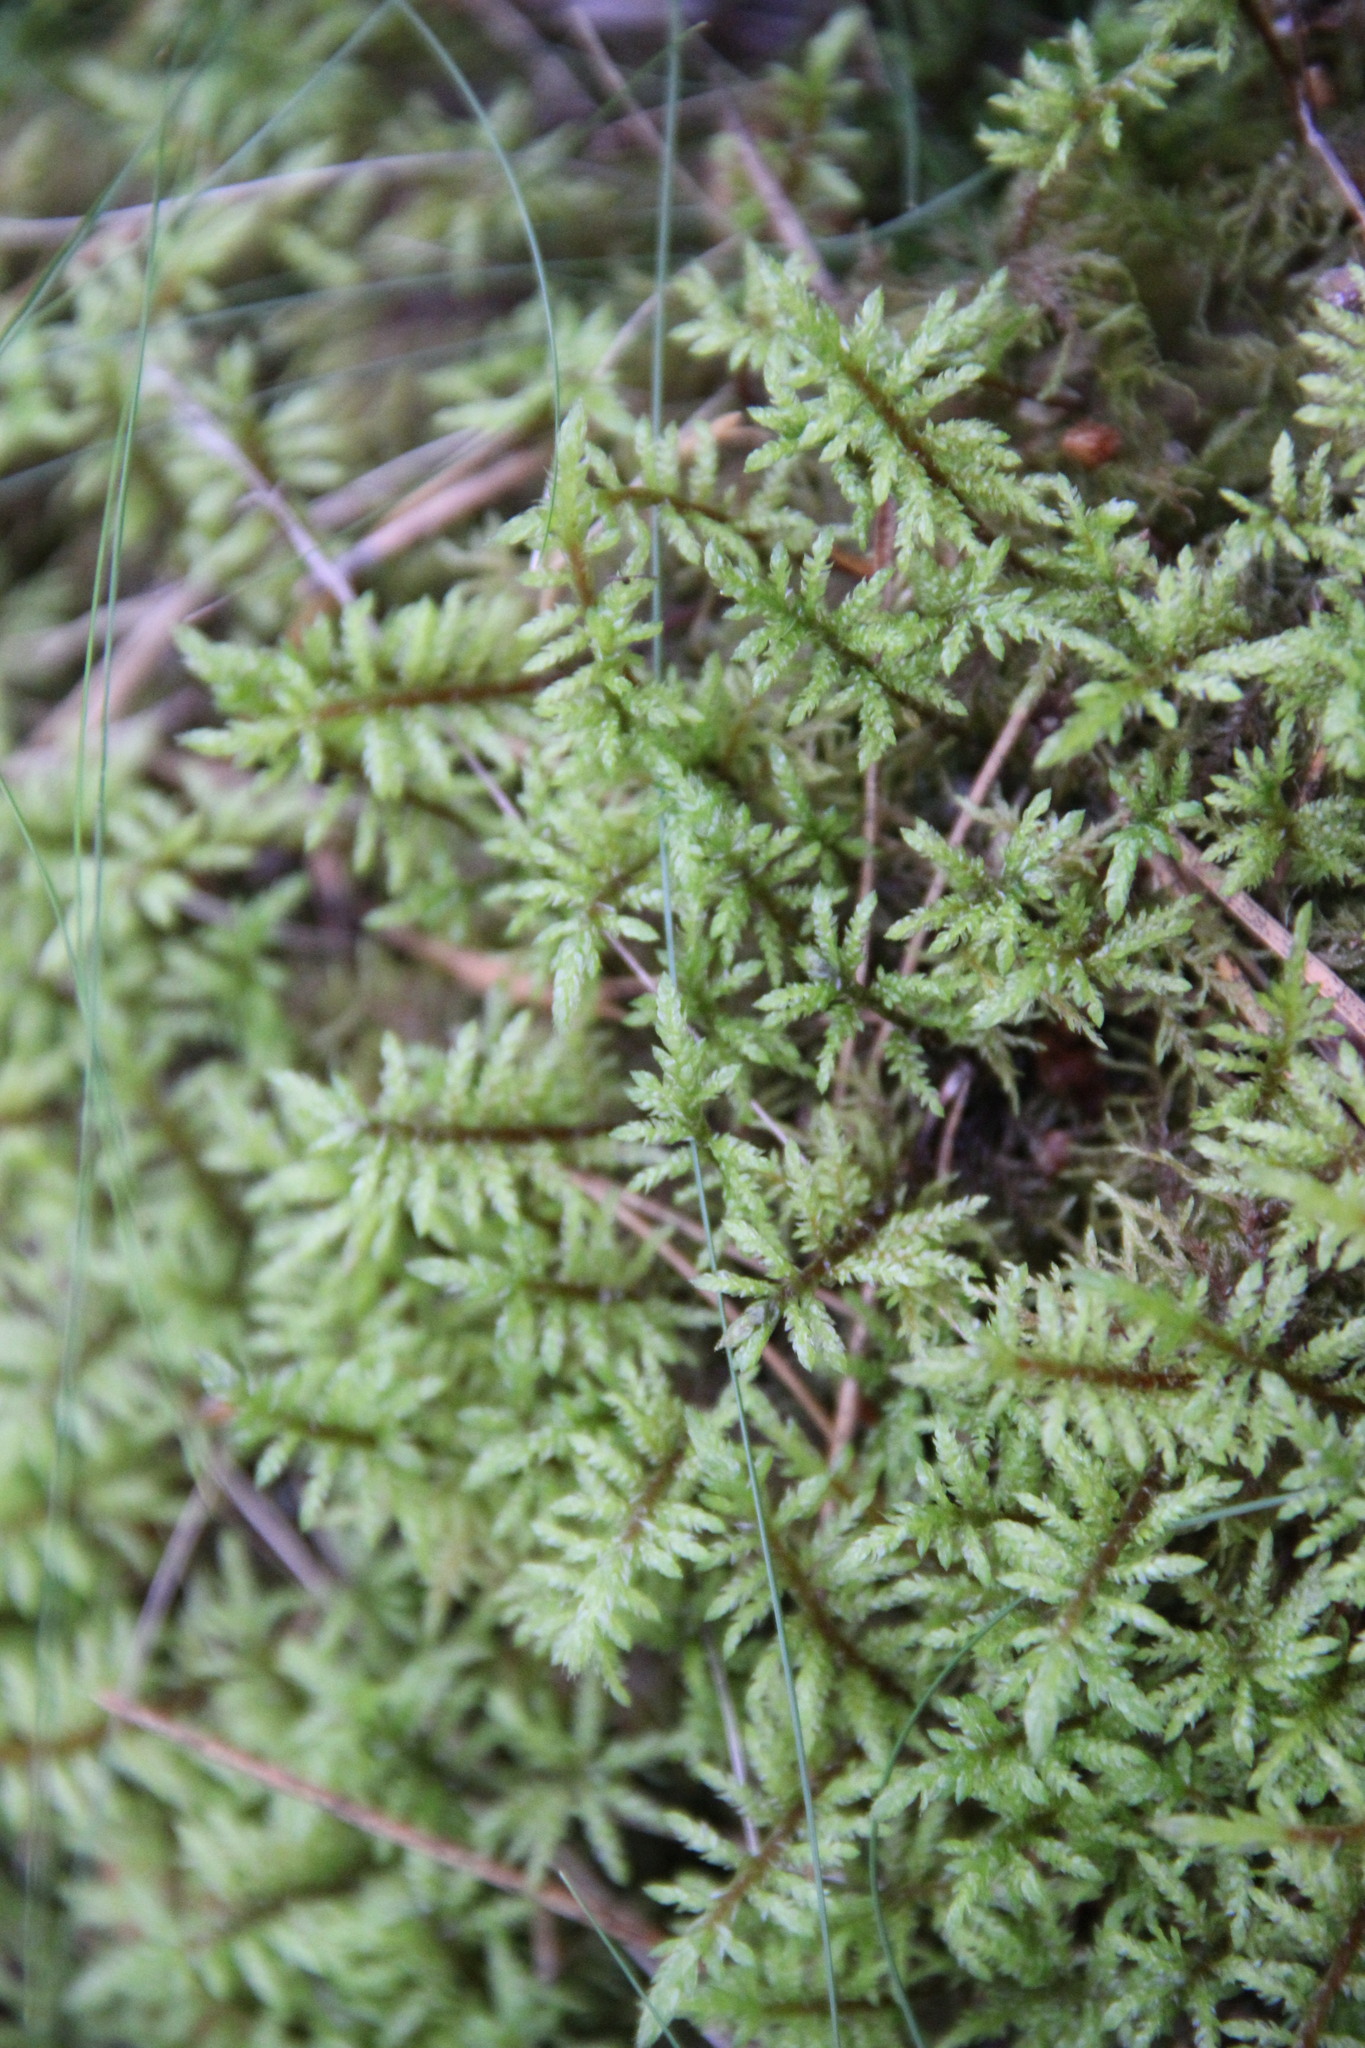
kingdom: Plantae
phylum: Bryophyta
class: Bryopsida
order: Hypnales
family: Hylocomiaceae
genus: Hylocomium
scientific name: Hylocomium splendens
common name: Stairstep moss
